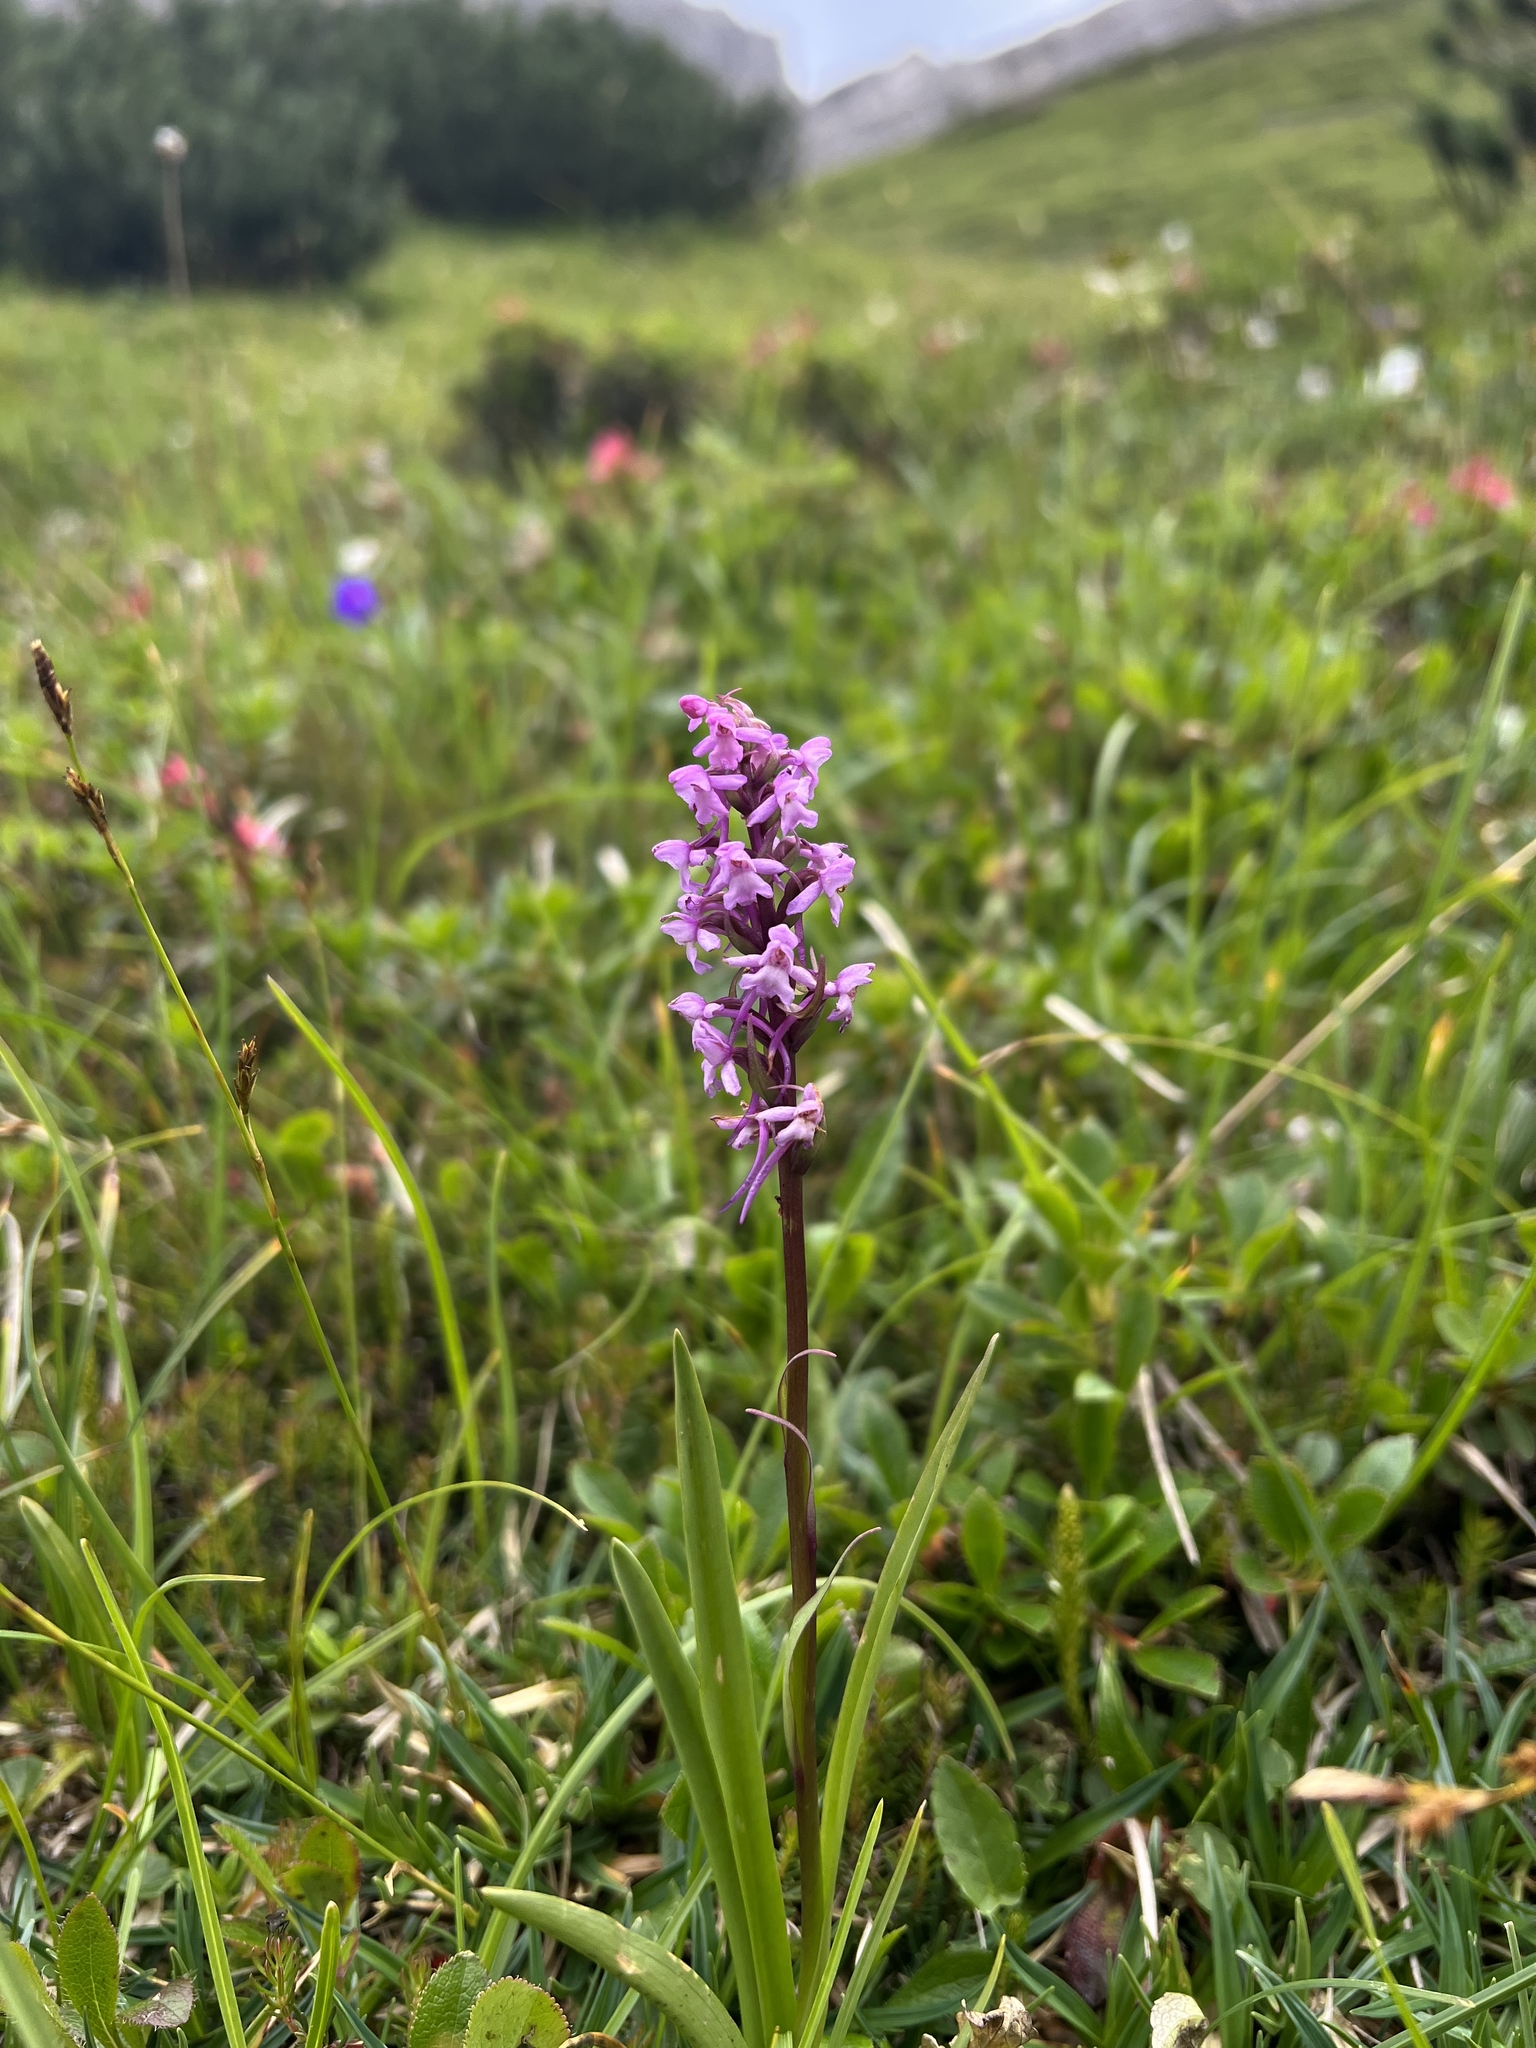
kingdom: Plantae
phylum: Tracheophyta
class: Liliopsida
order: Asparagales
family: Orchidaceae
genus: Gymnadenia
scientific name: Gymnadenia conopsea
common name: Fragrant orchid
